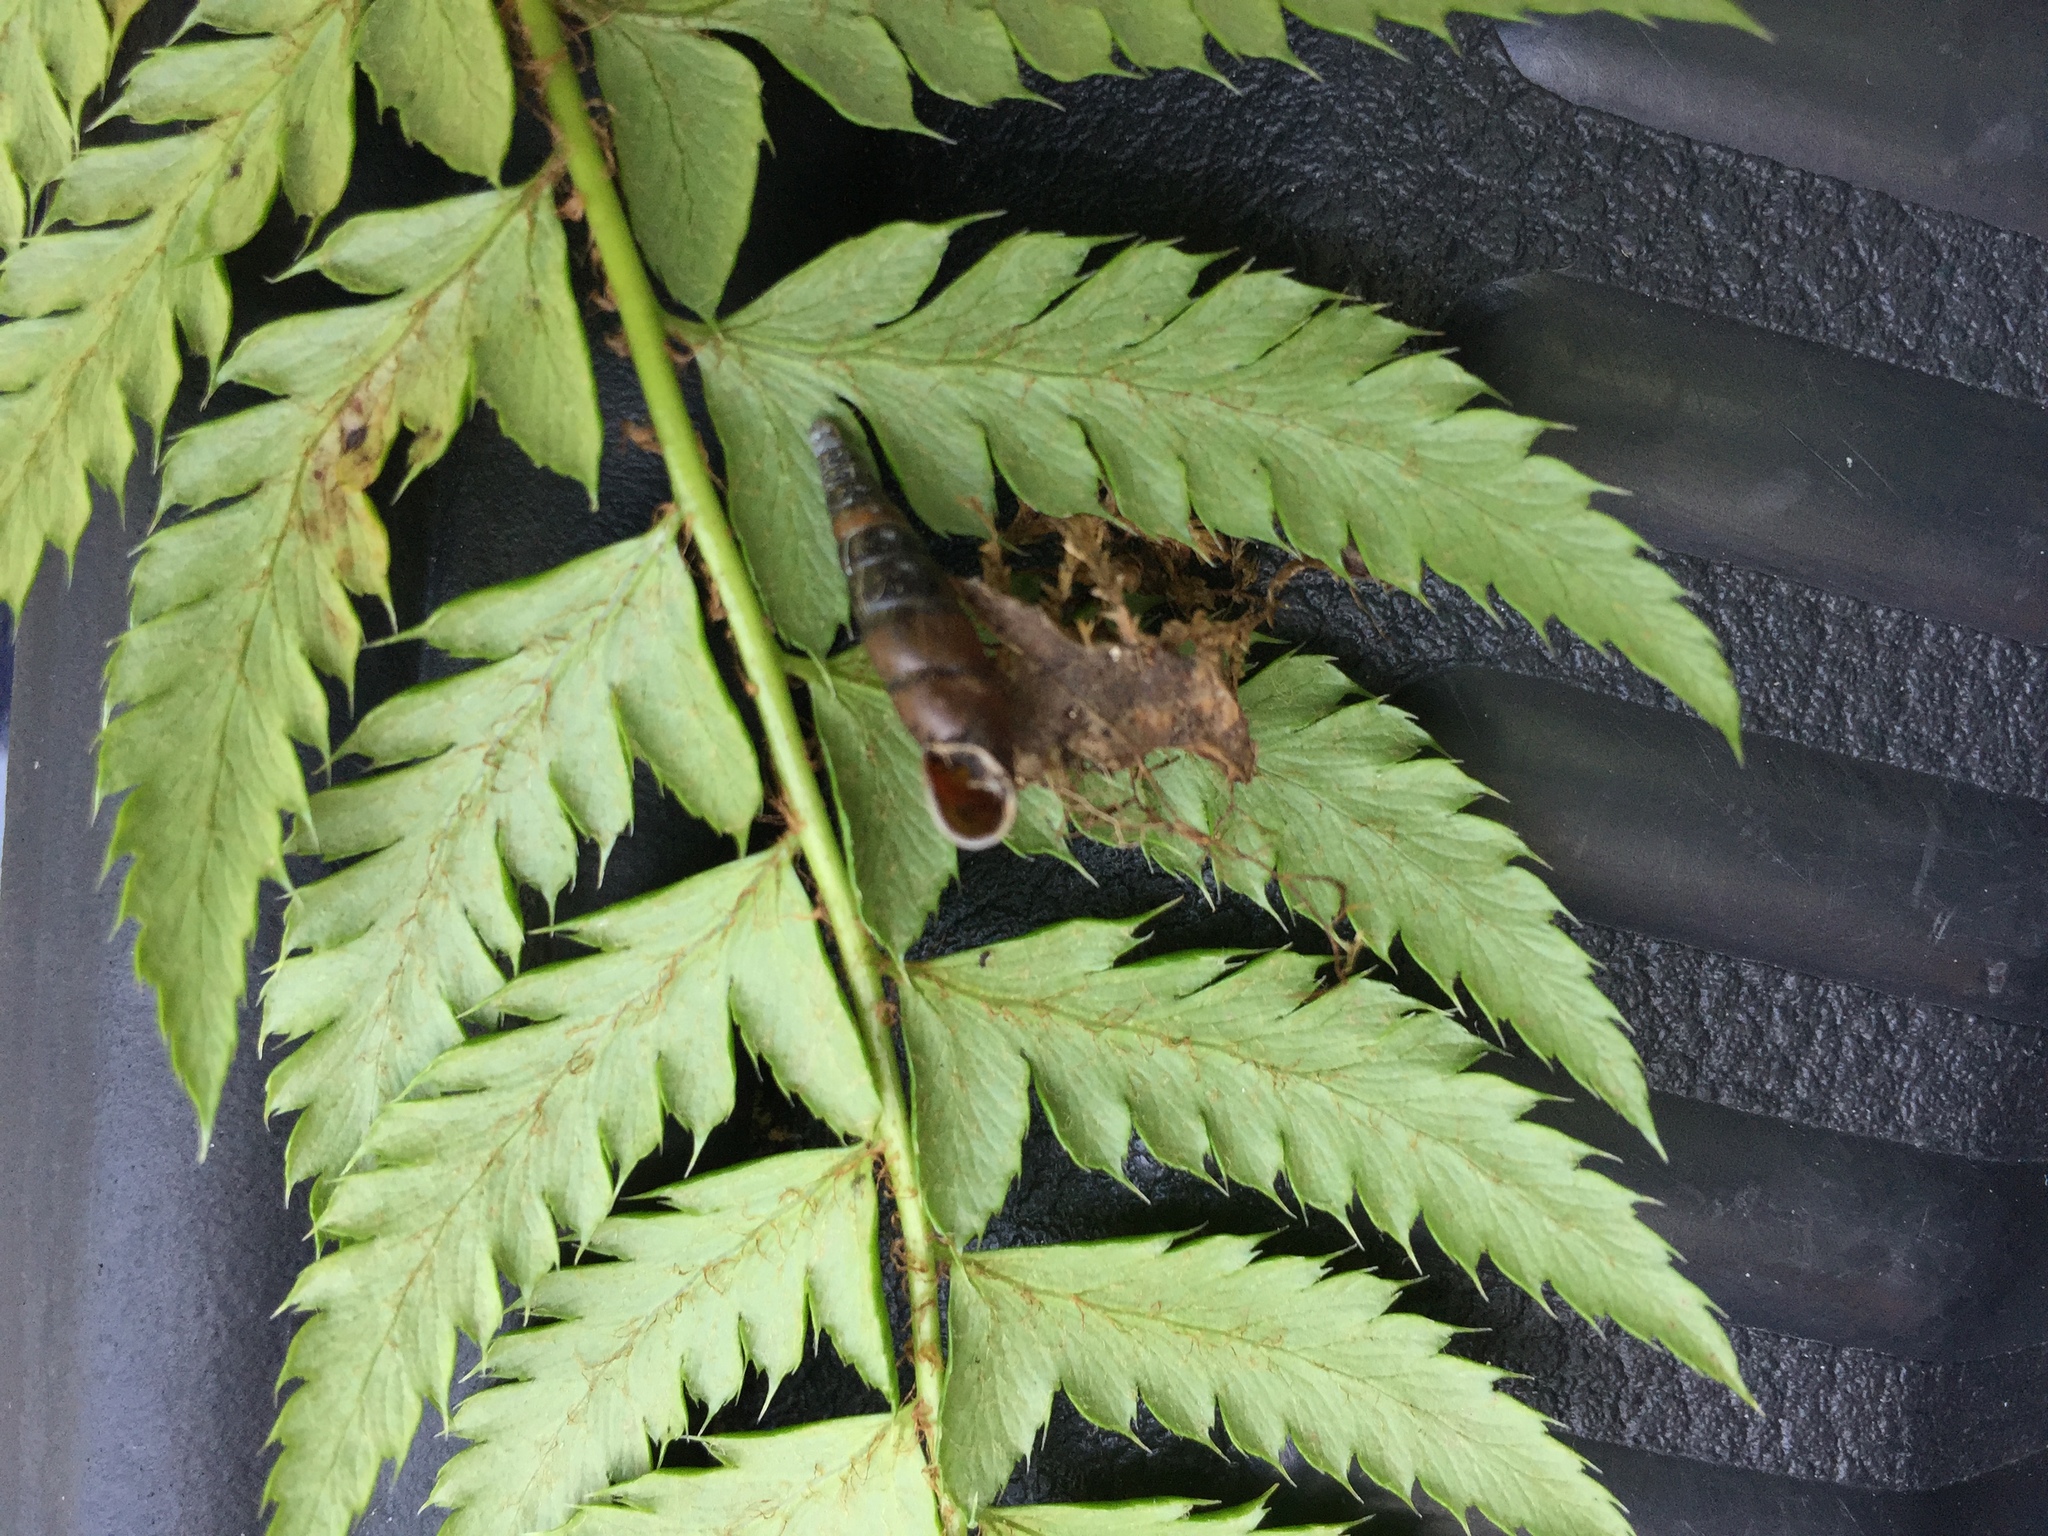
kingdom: Animalia
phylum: Mollusca
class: Gastropoda
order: Stylommatophora
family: Clausiliidae
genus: Cochlodina
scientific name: Cochlodina laminata
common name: Plaited door snail
